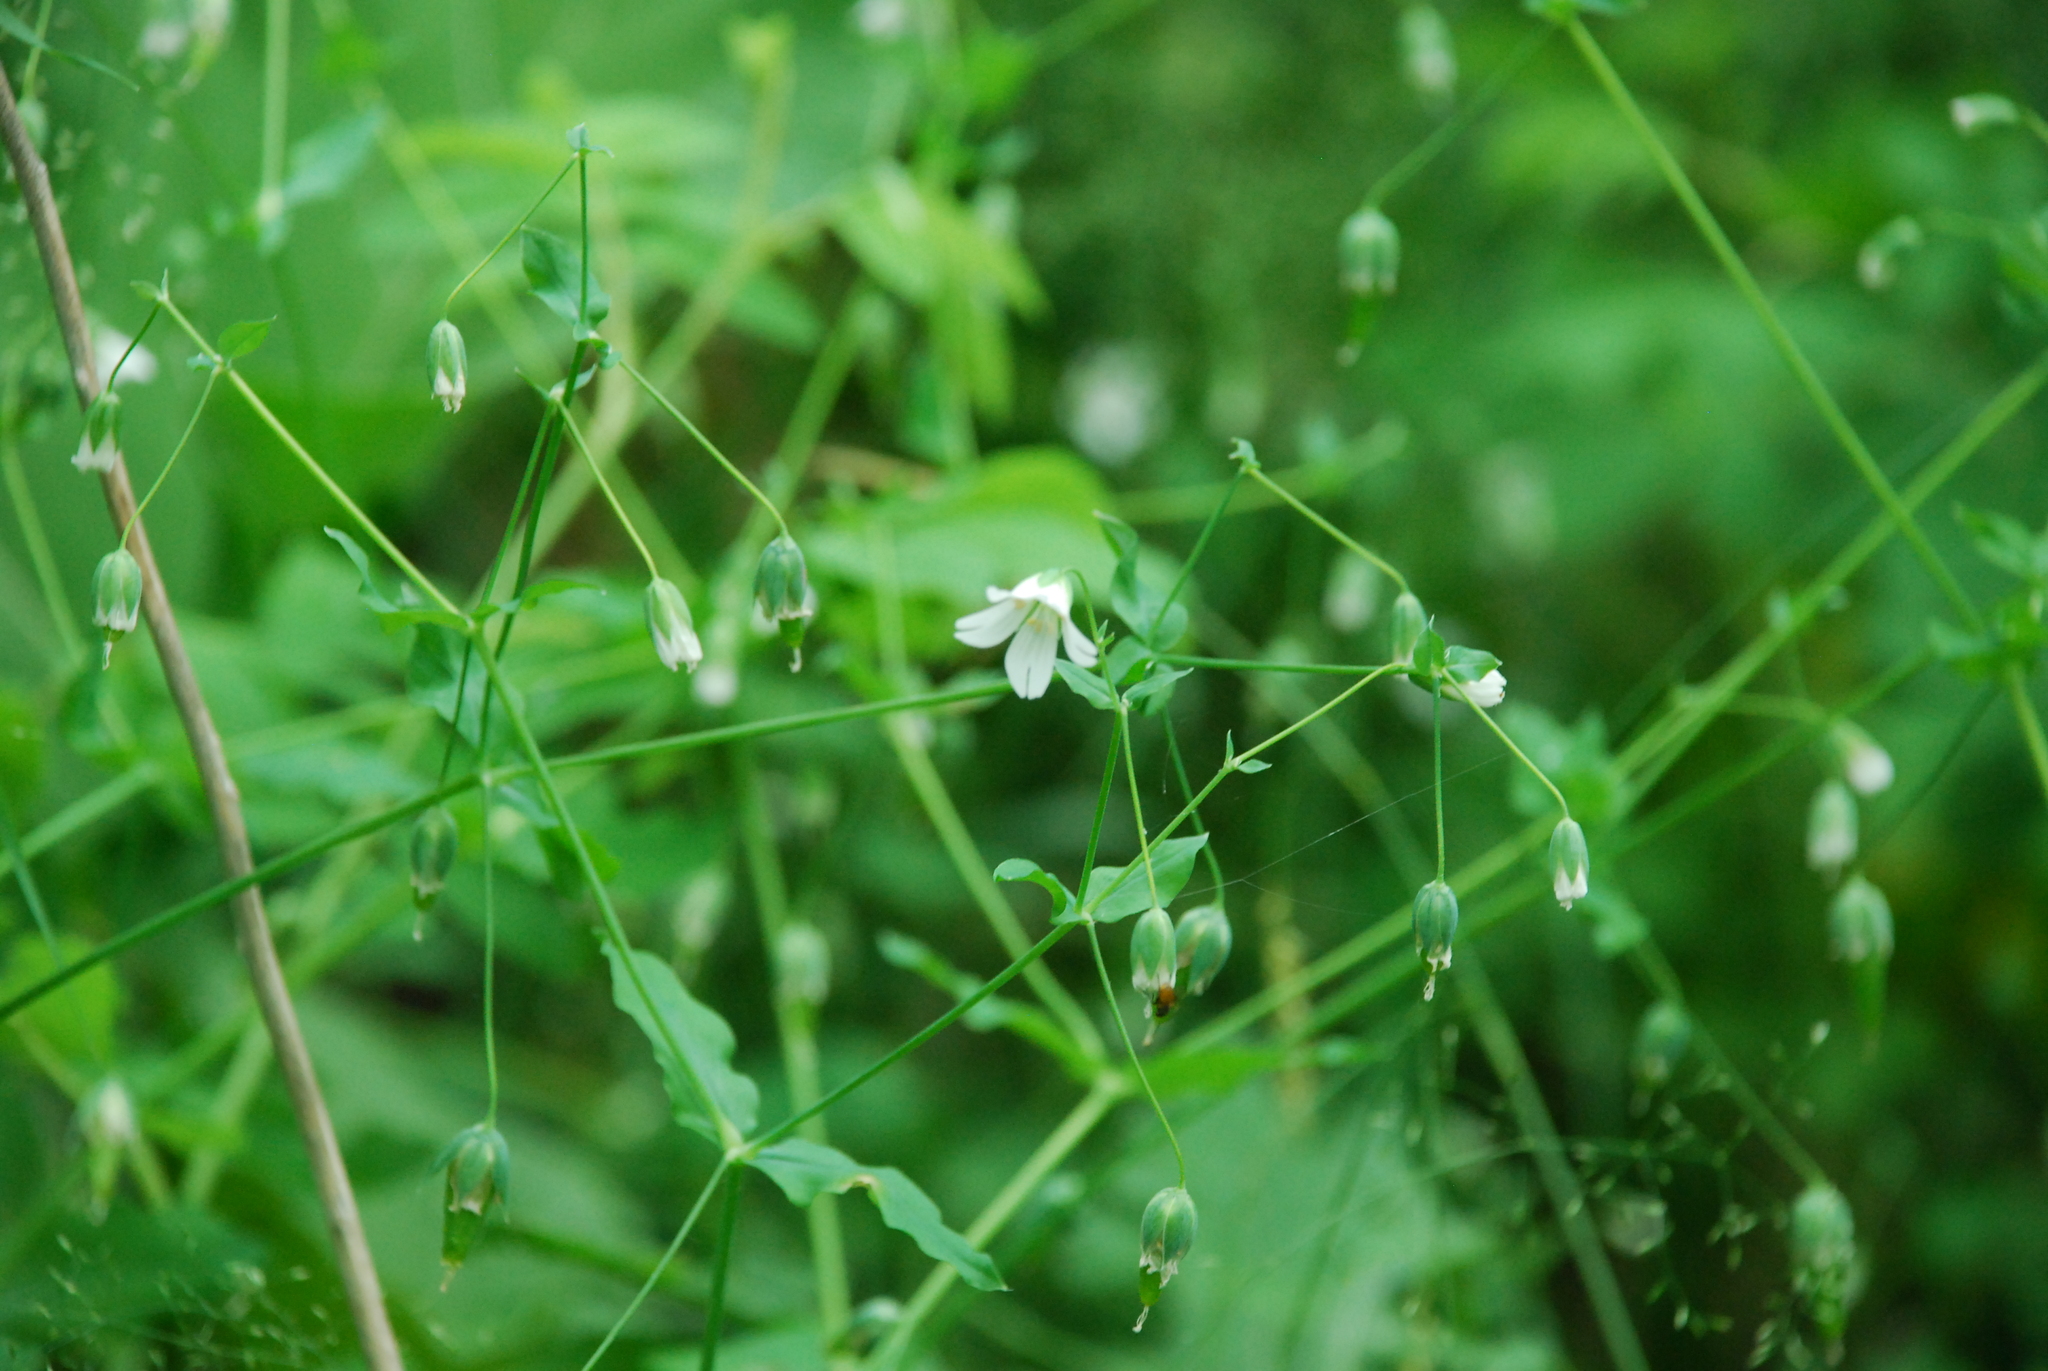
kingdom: Plantae
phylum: Tracheophyta
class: Magnoliopsida
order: Caryophyllales
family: Caryophyllaceae
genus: Cerastium
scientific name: Cerastium davuricum
